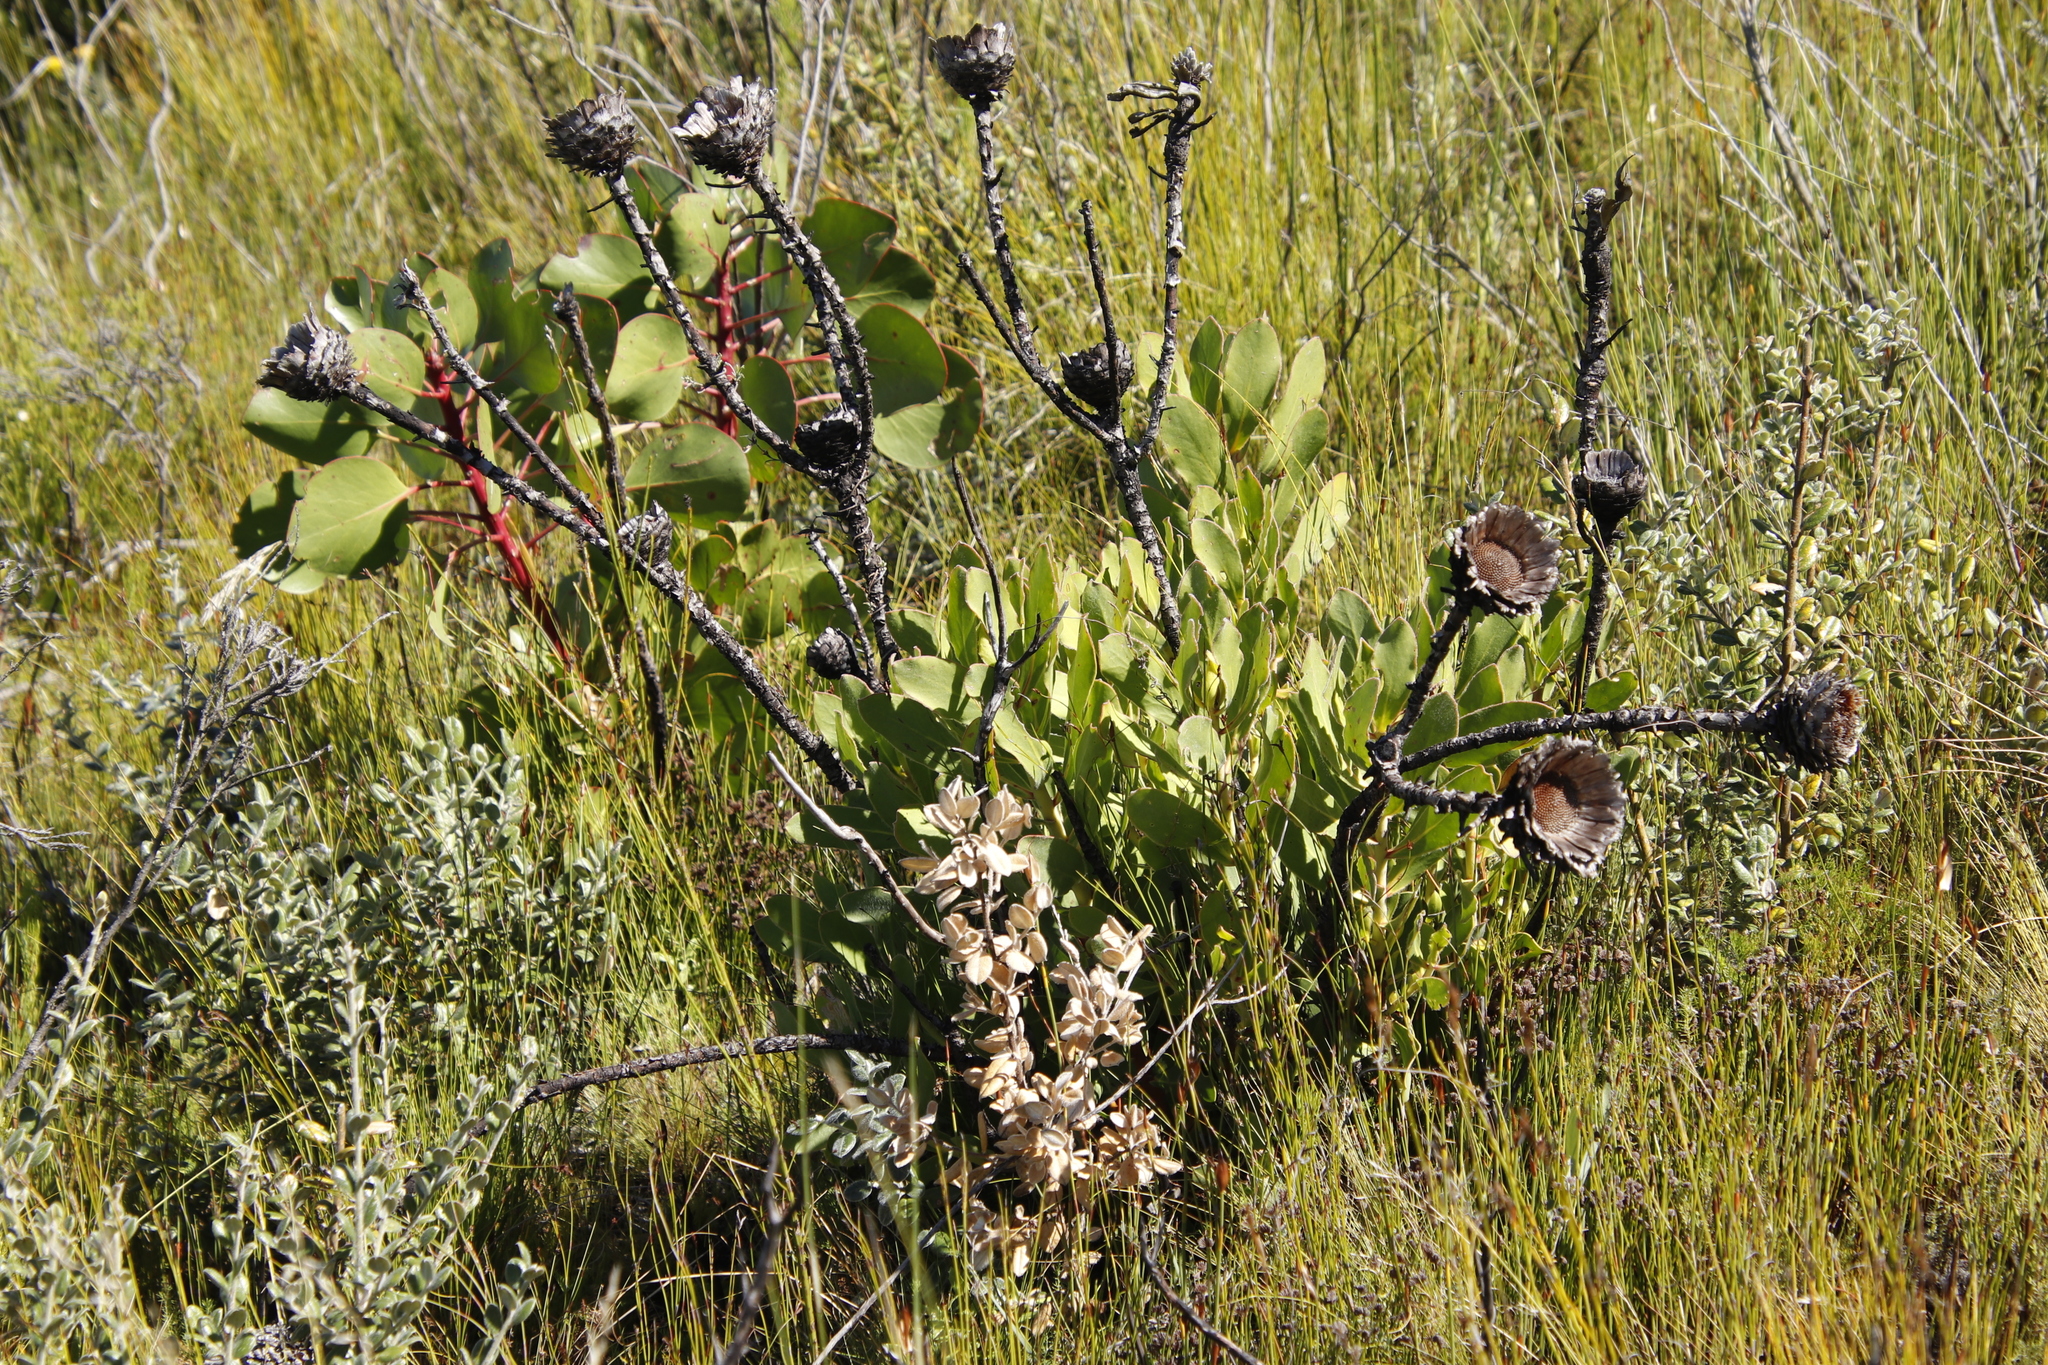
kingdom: Plantae
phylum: Tracheophyta
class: Magnoliopsida
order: Proteales
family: Proteaceae
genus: Protea
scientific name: Protea speciosa
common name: Brown-beard sugarbush
